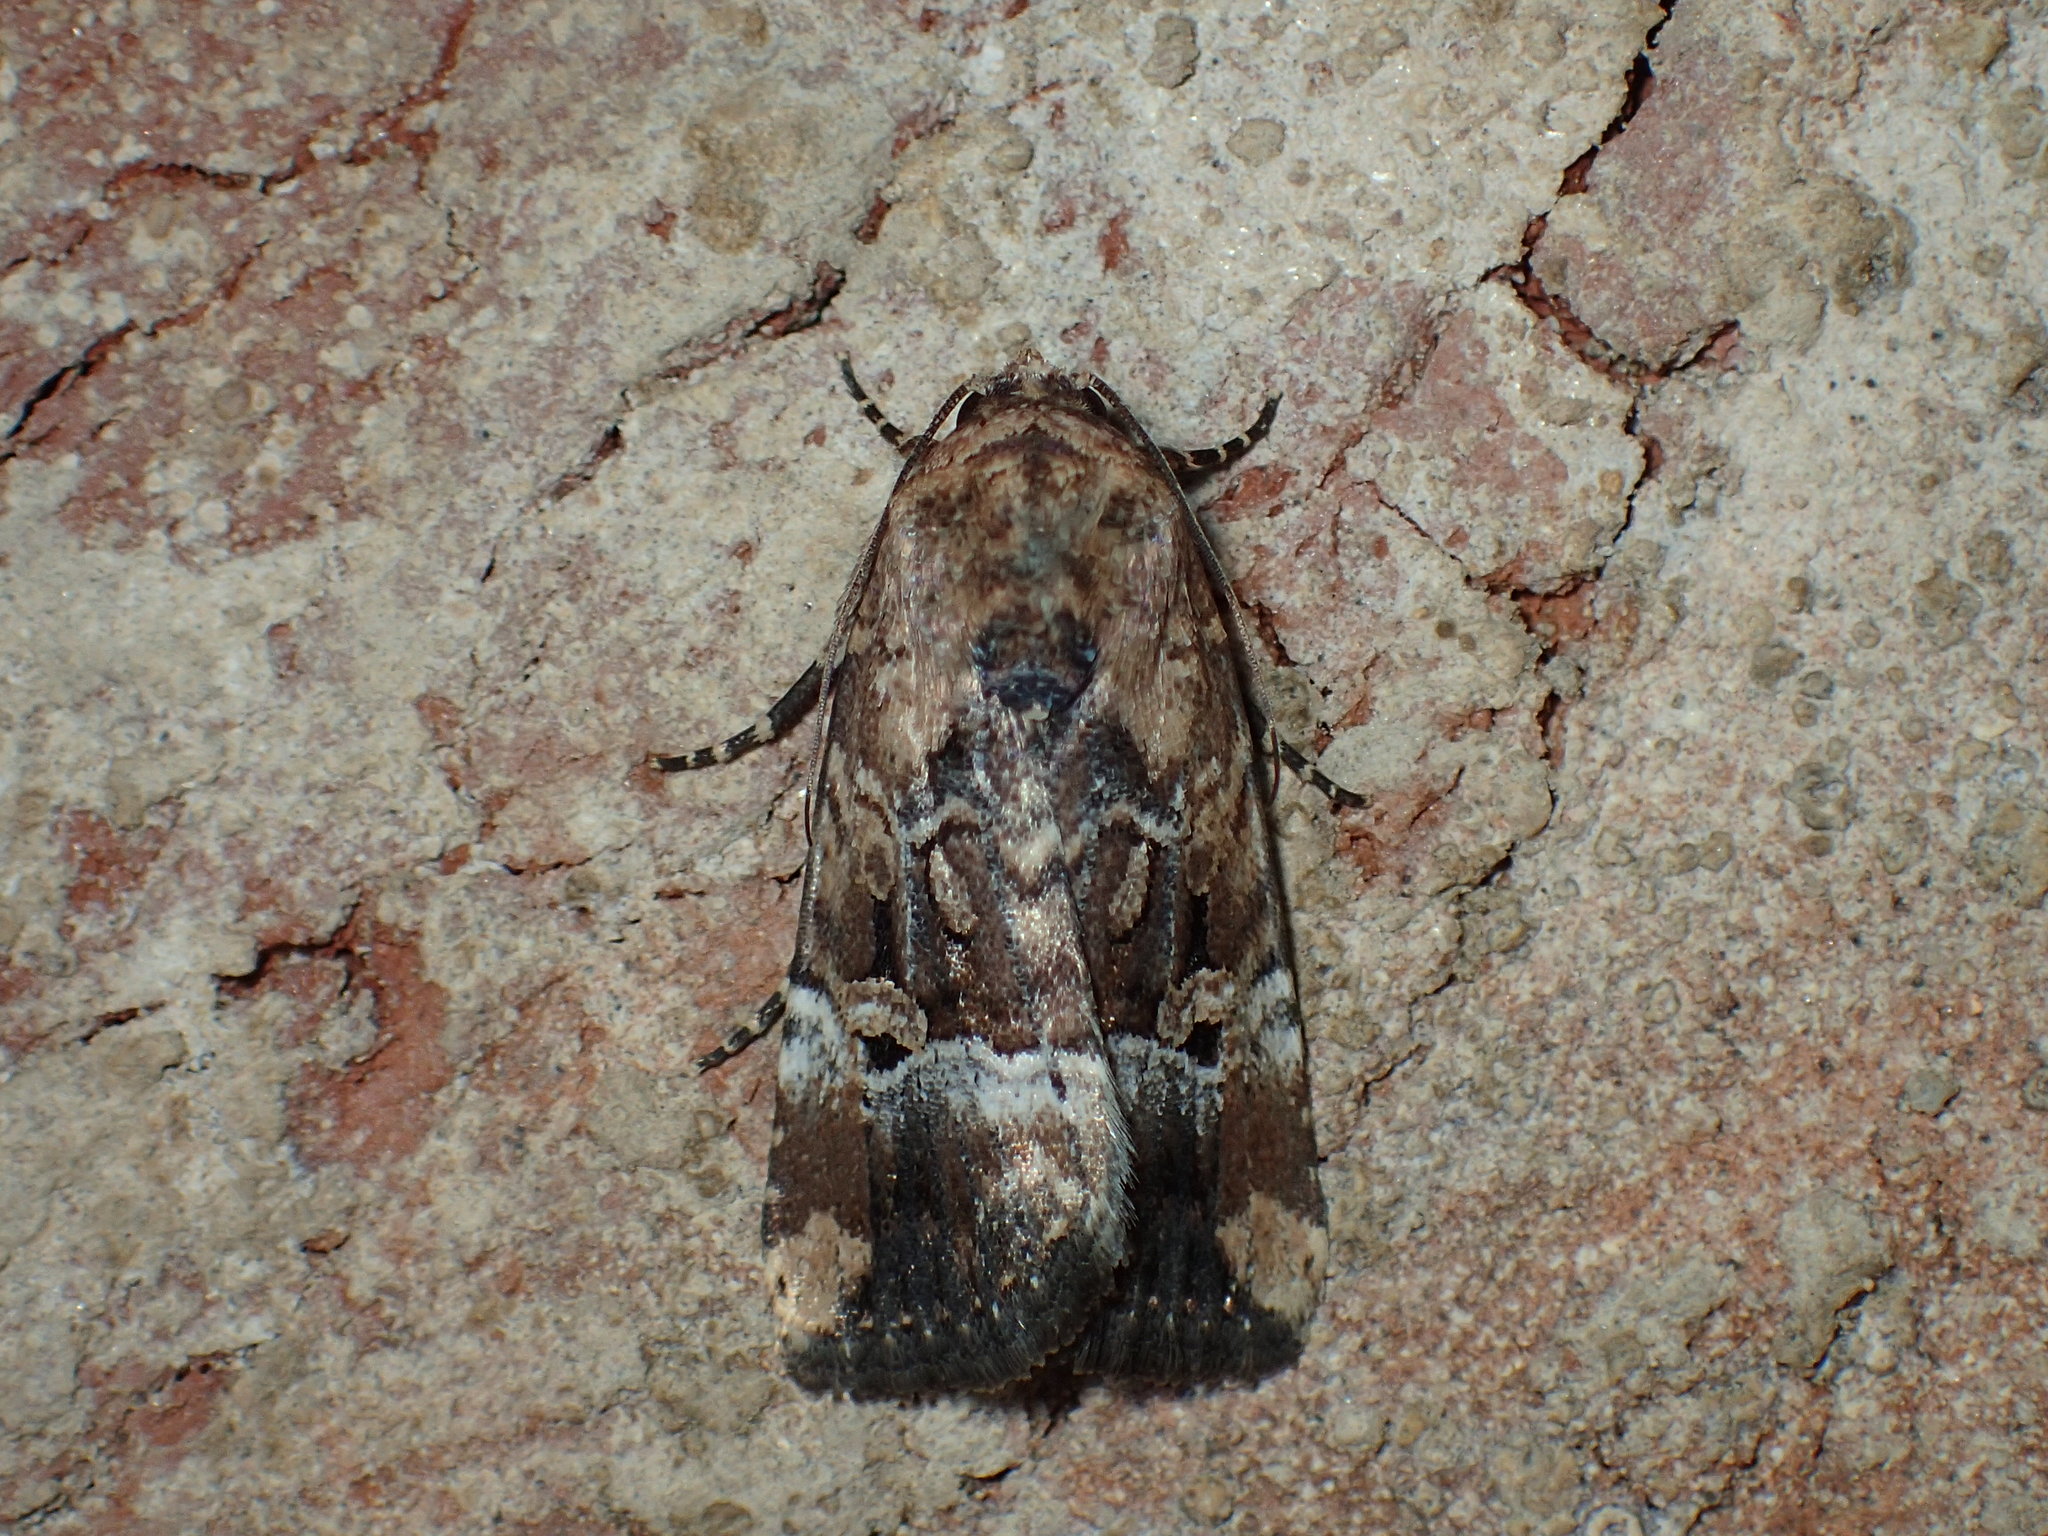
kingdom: Animalia
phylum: Arthropoda
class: Insecta
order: Lepidoptera
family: Noctuidae
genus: Elaphria
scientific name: Elaphria chalcedonia
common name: Chalcedony midget
